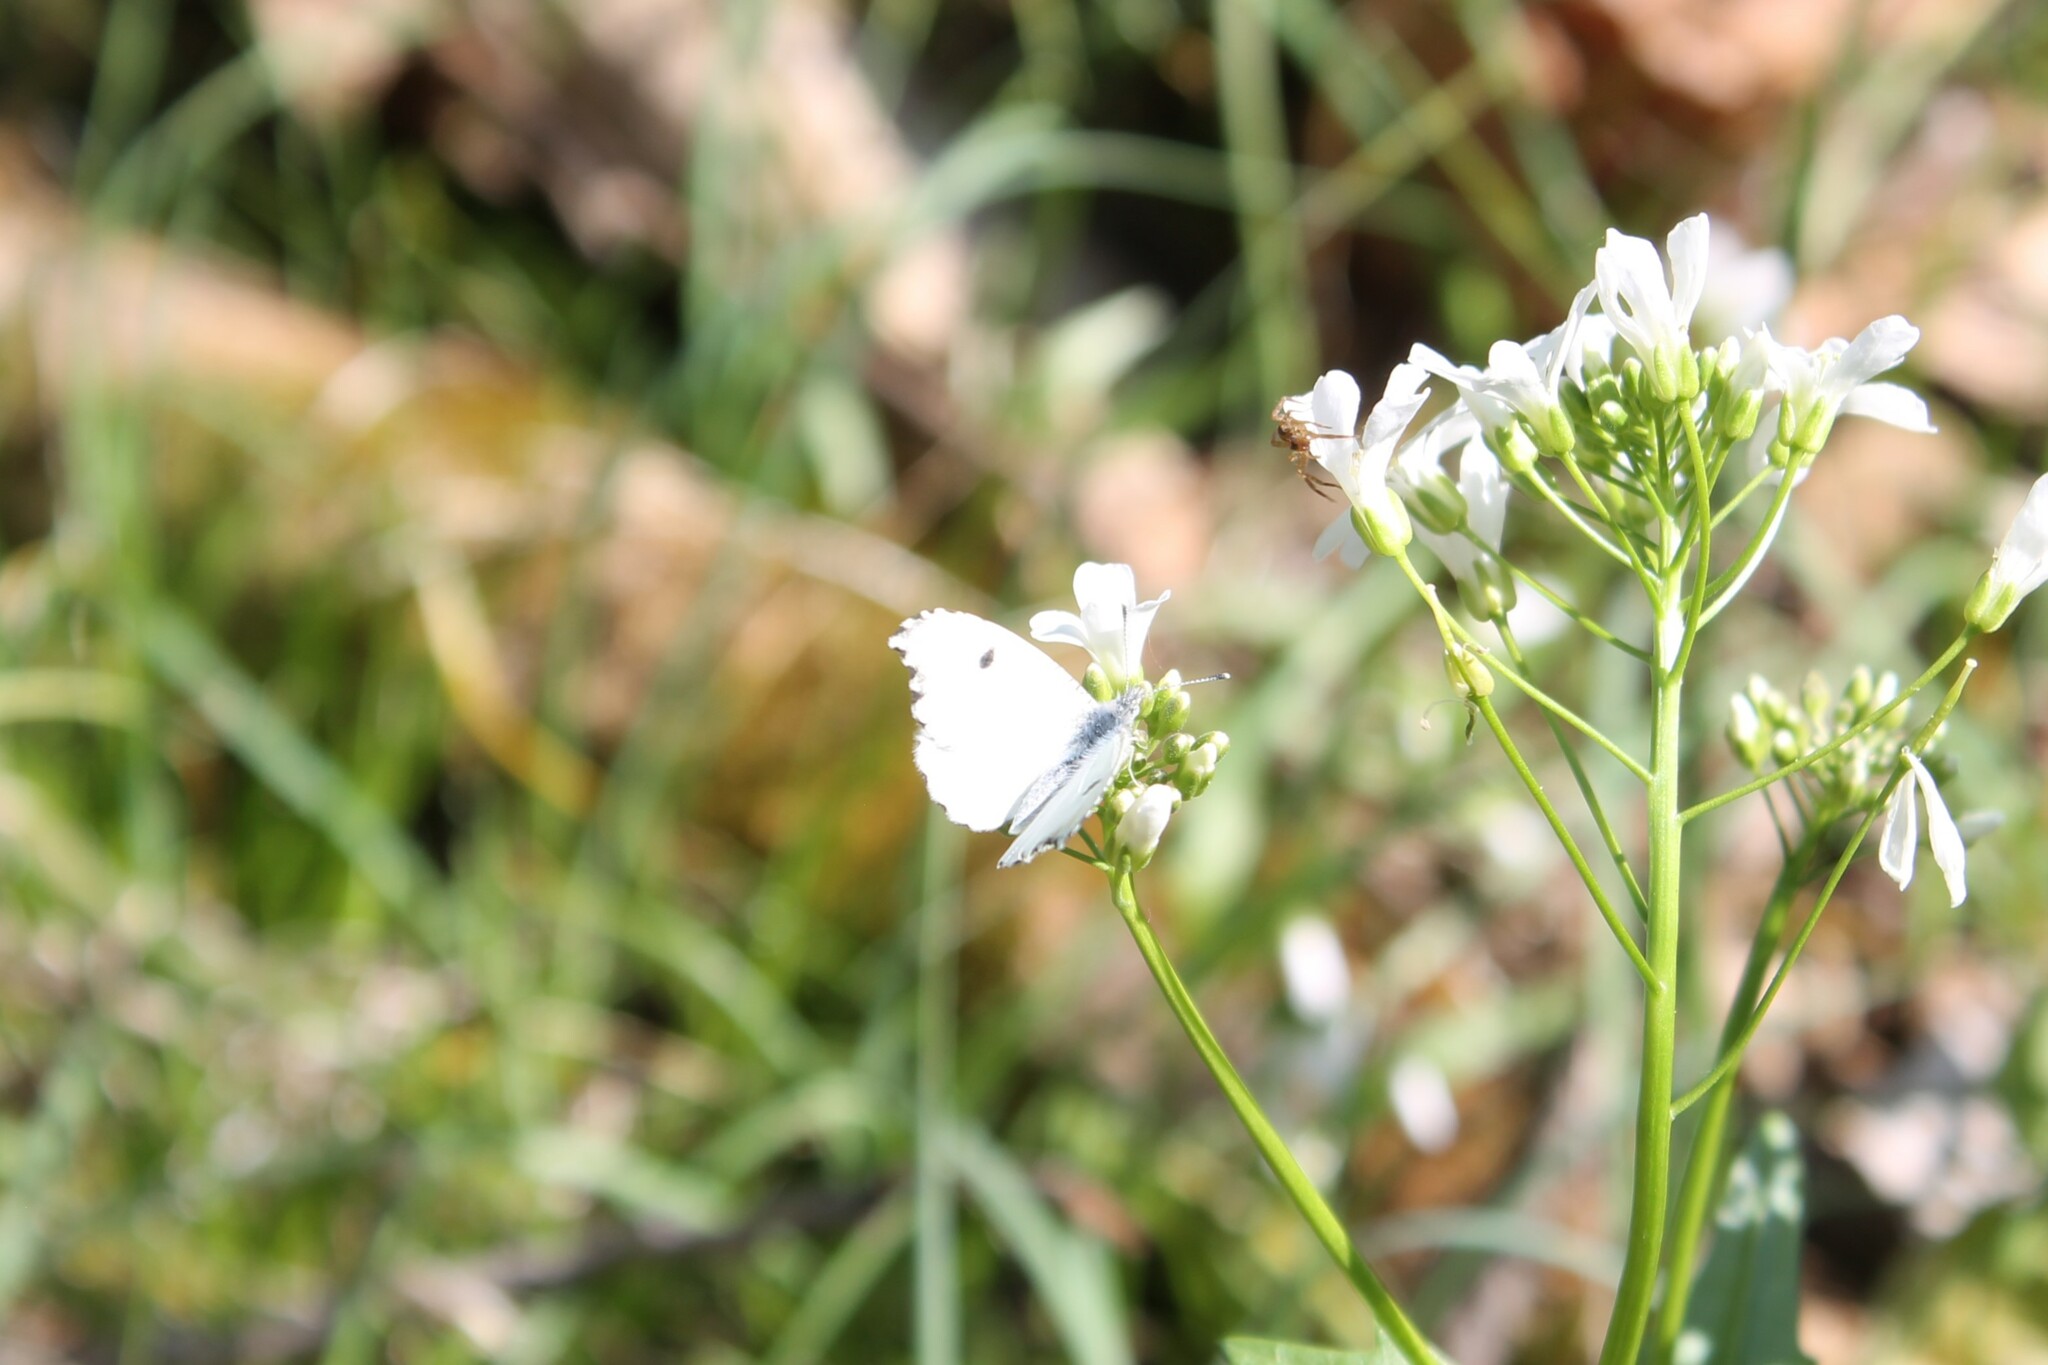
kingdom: Animalia
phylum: Arthropoda
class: Insecta
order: Lepidoptera
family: Pieridae
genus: Anthocharis
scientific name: Anthocharis midea
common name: Falcate orangetip
